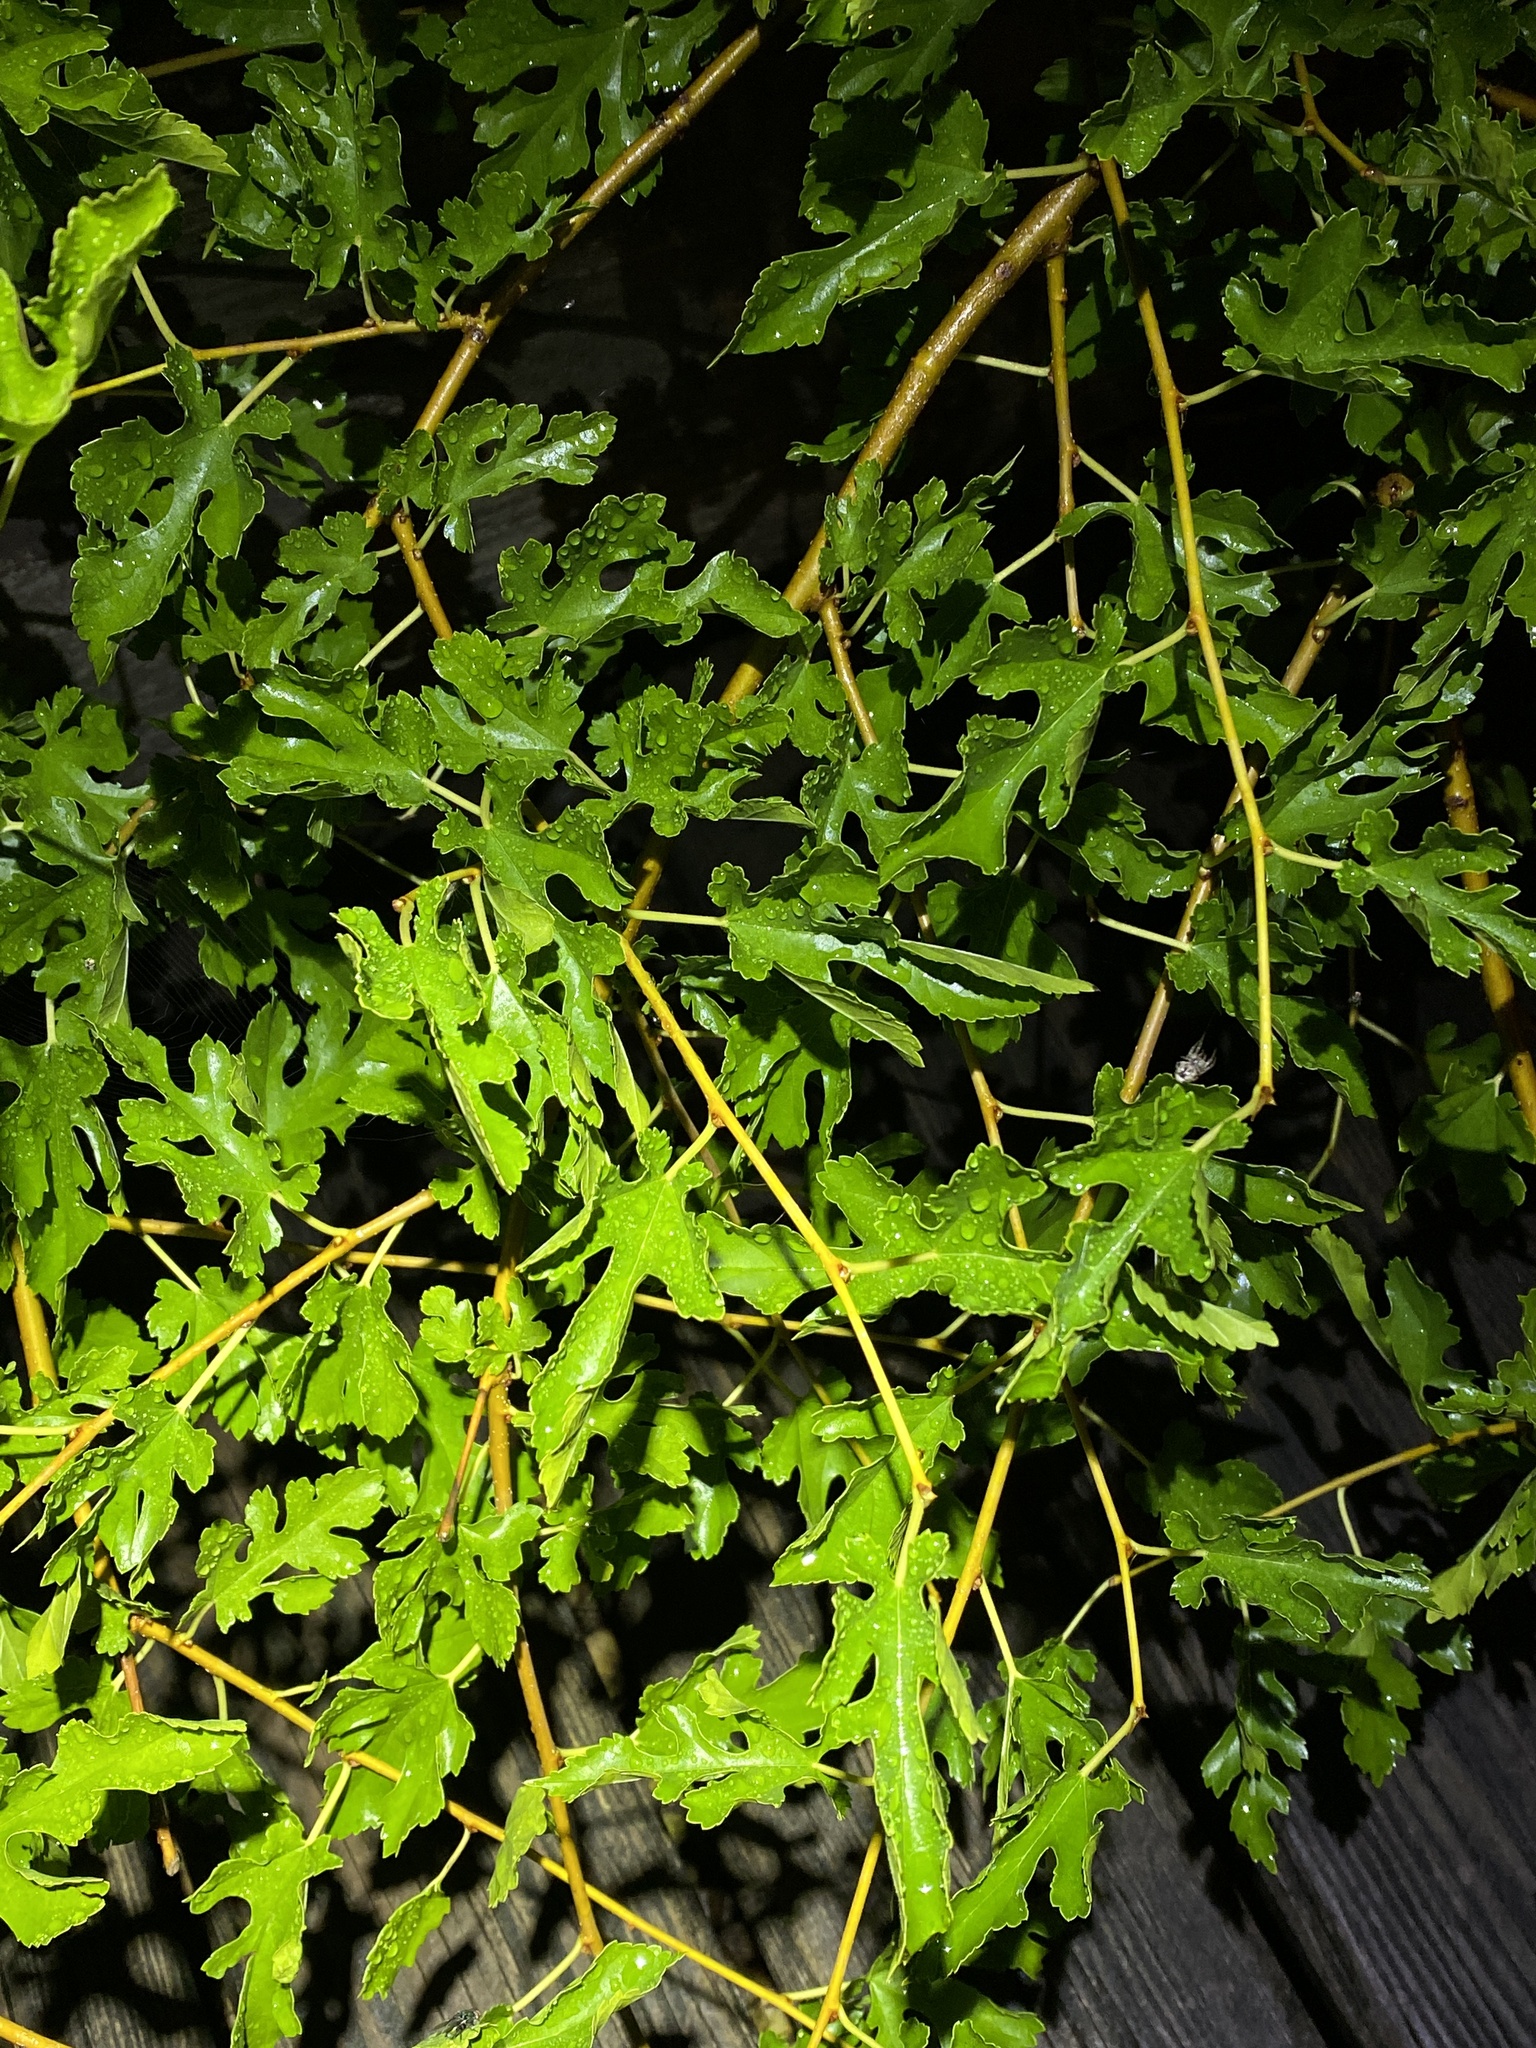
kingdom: Plantae
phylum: Tracheophyta
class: Magnoliopsida
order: Rosales
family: Moraceae
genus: Morus
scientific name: Morus alba
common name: White mulberry
